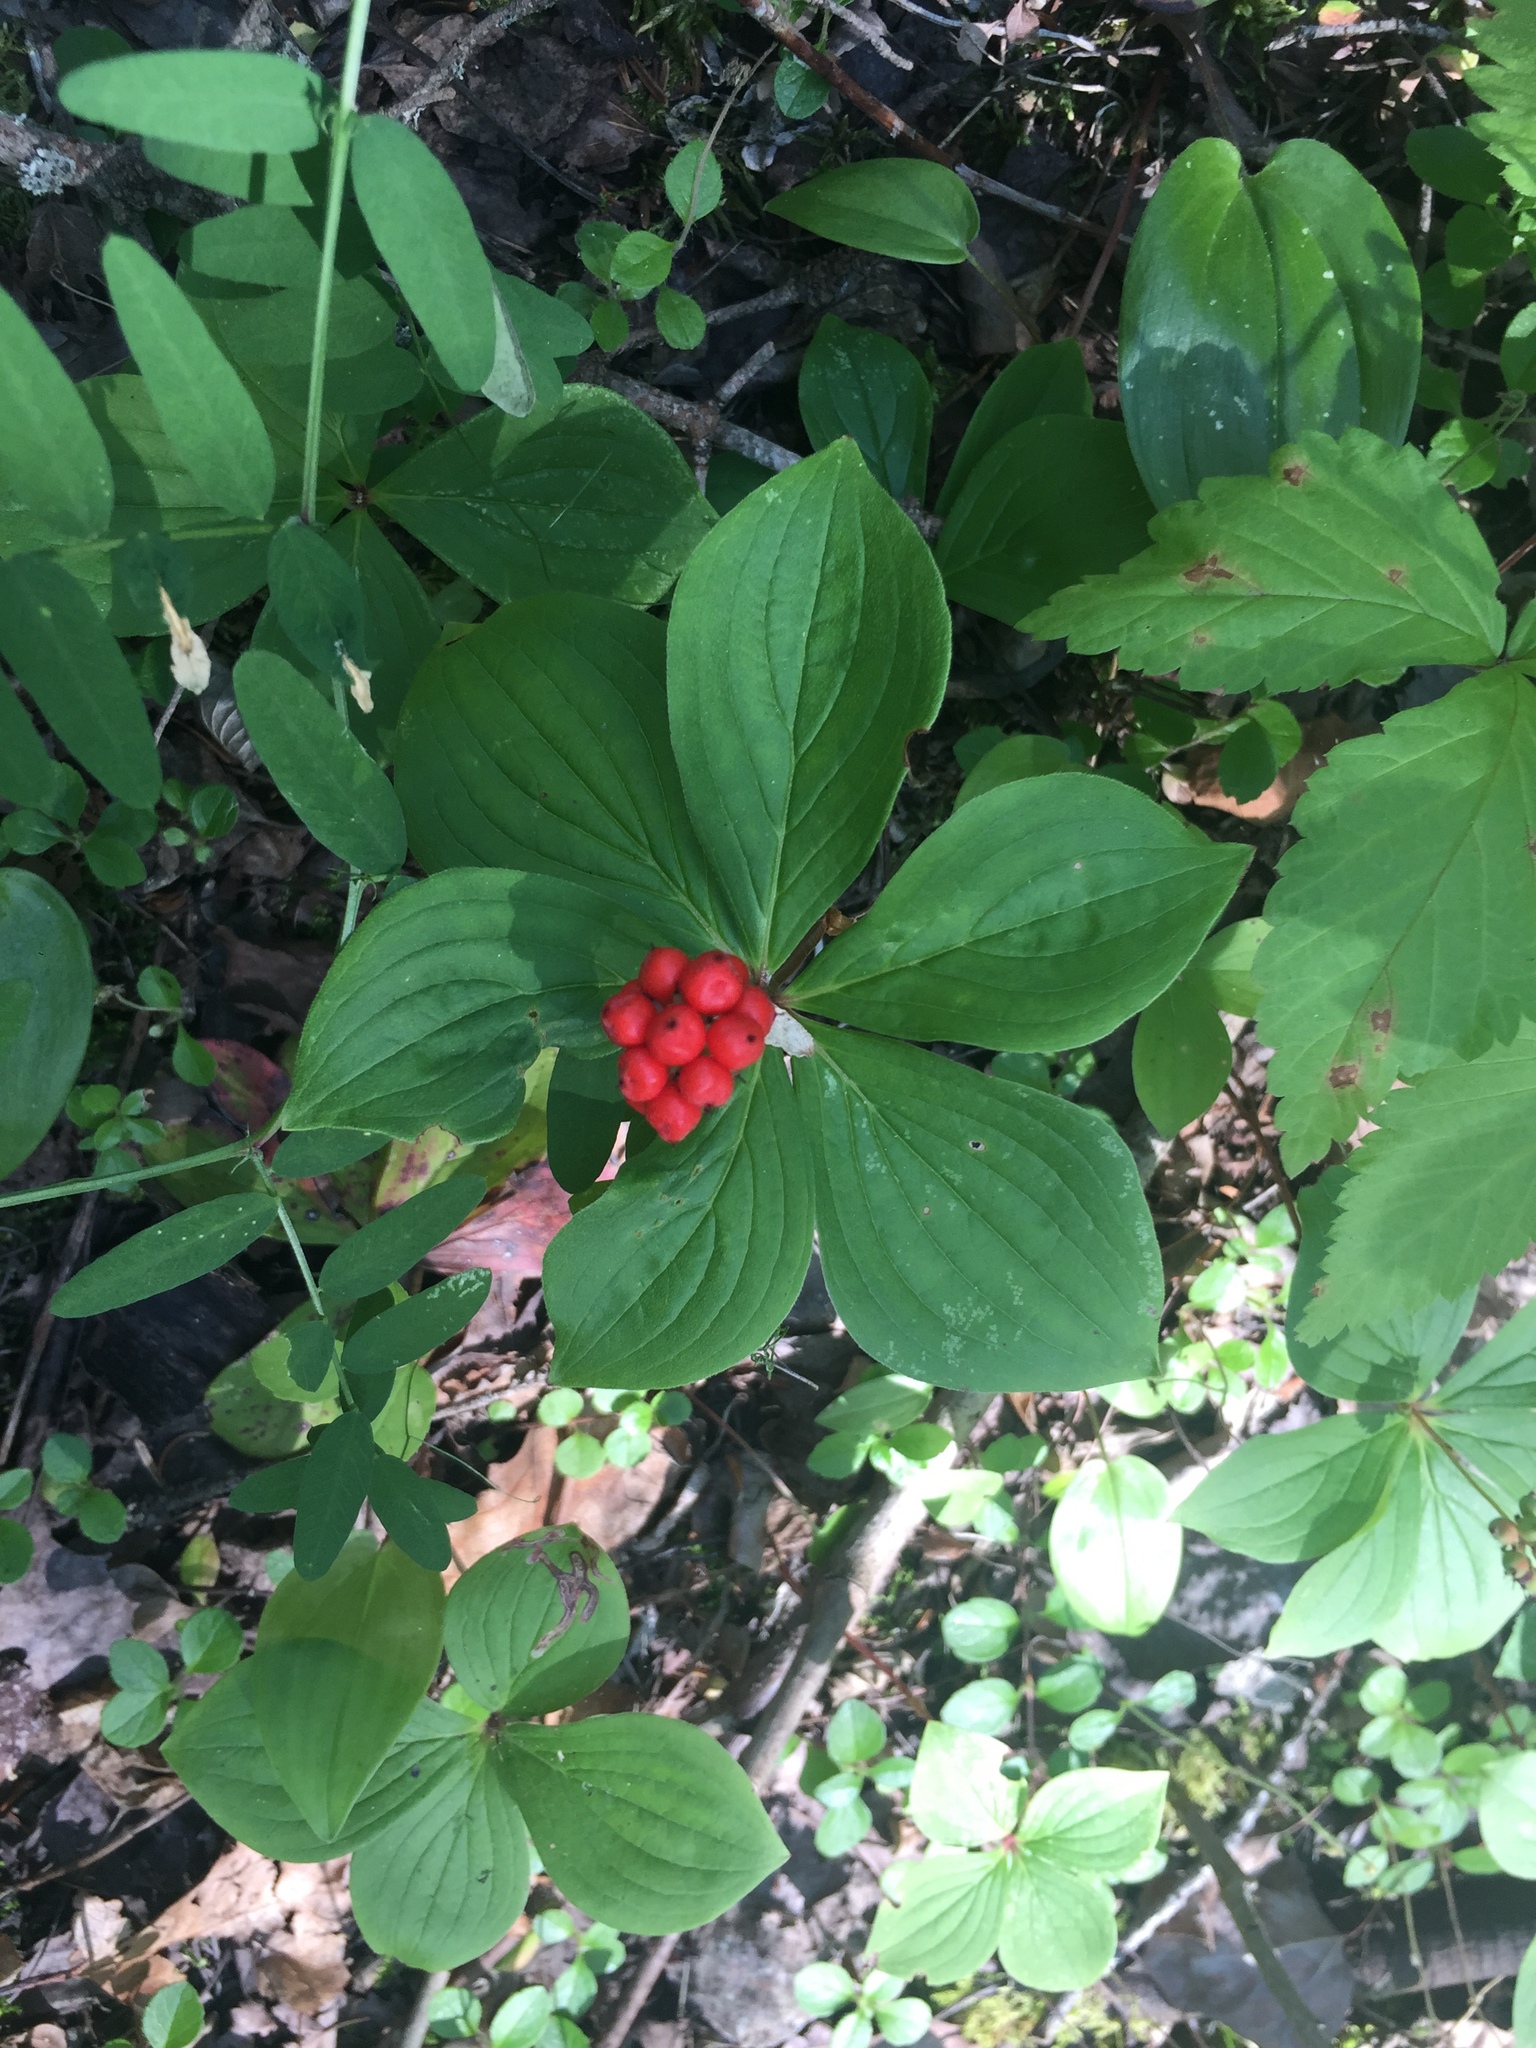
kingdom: Plantae
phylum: Tracheophyta
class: Magnoliopsida
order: Cornales
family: Cornaceae
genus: Cornus
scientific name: Cornus canadensis
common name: Creeping dogwood
